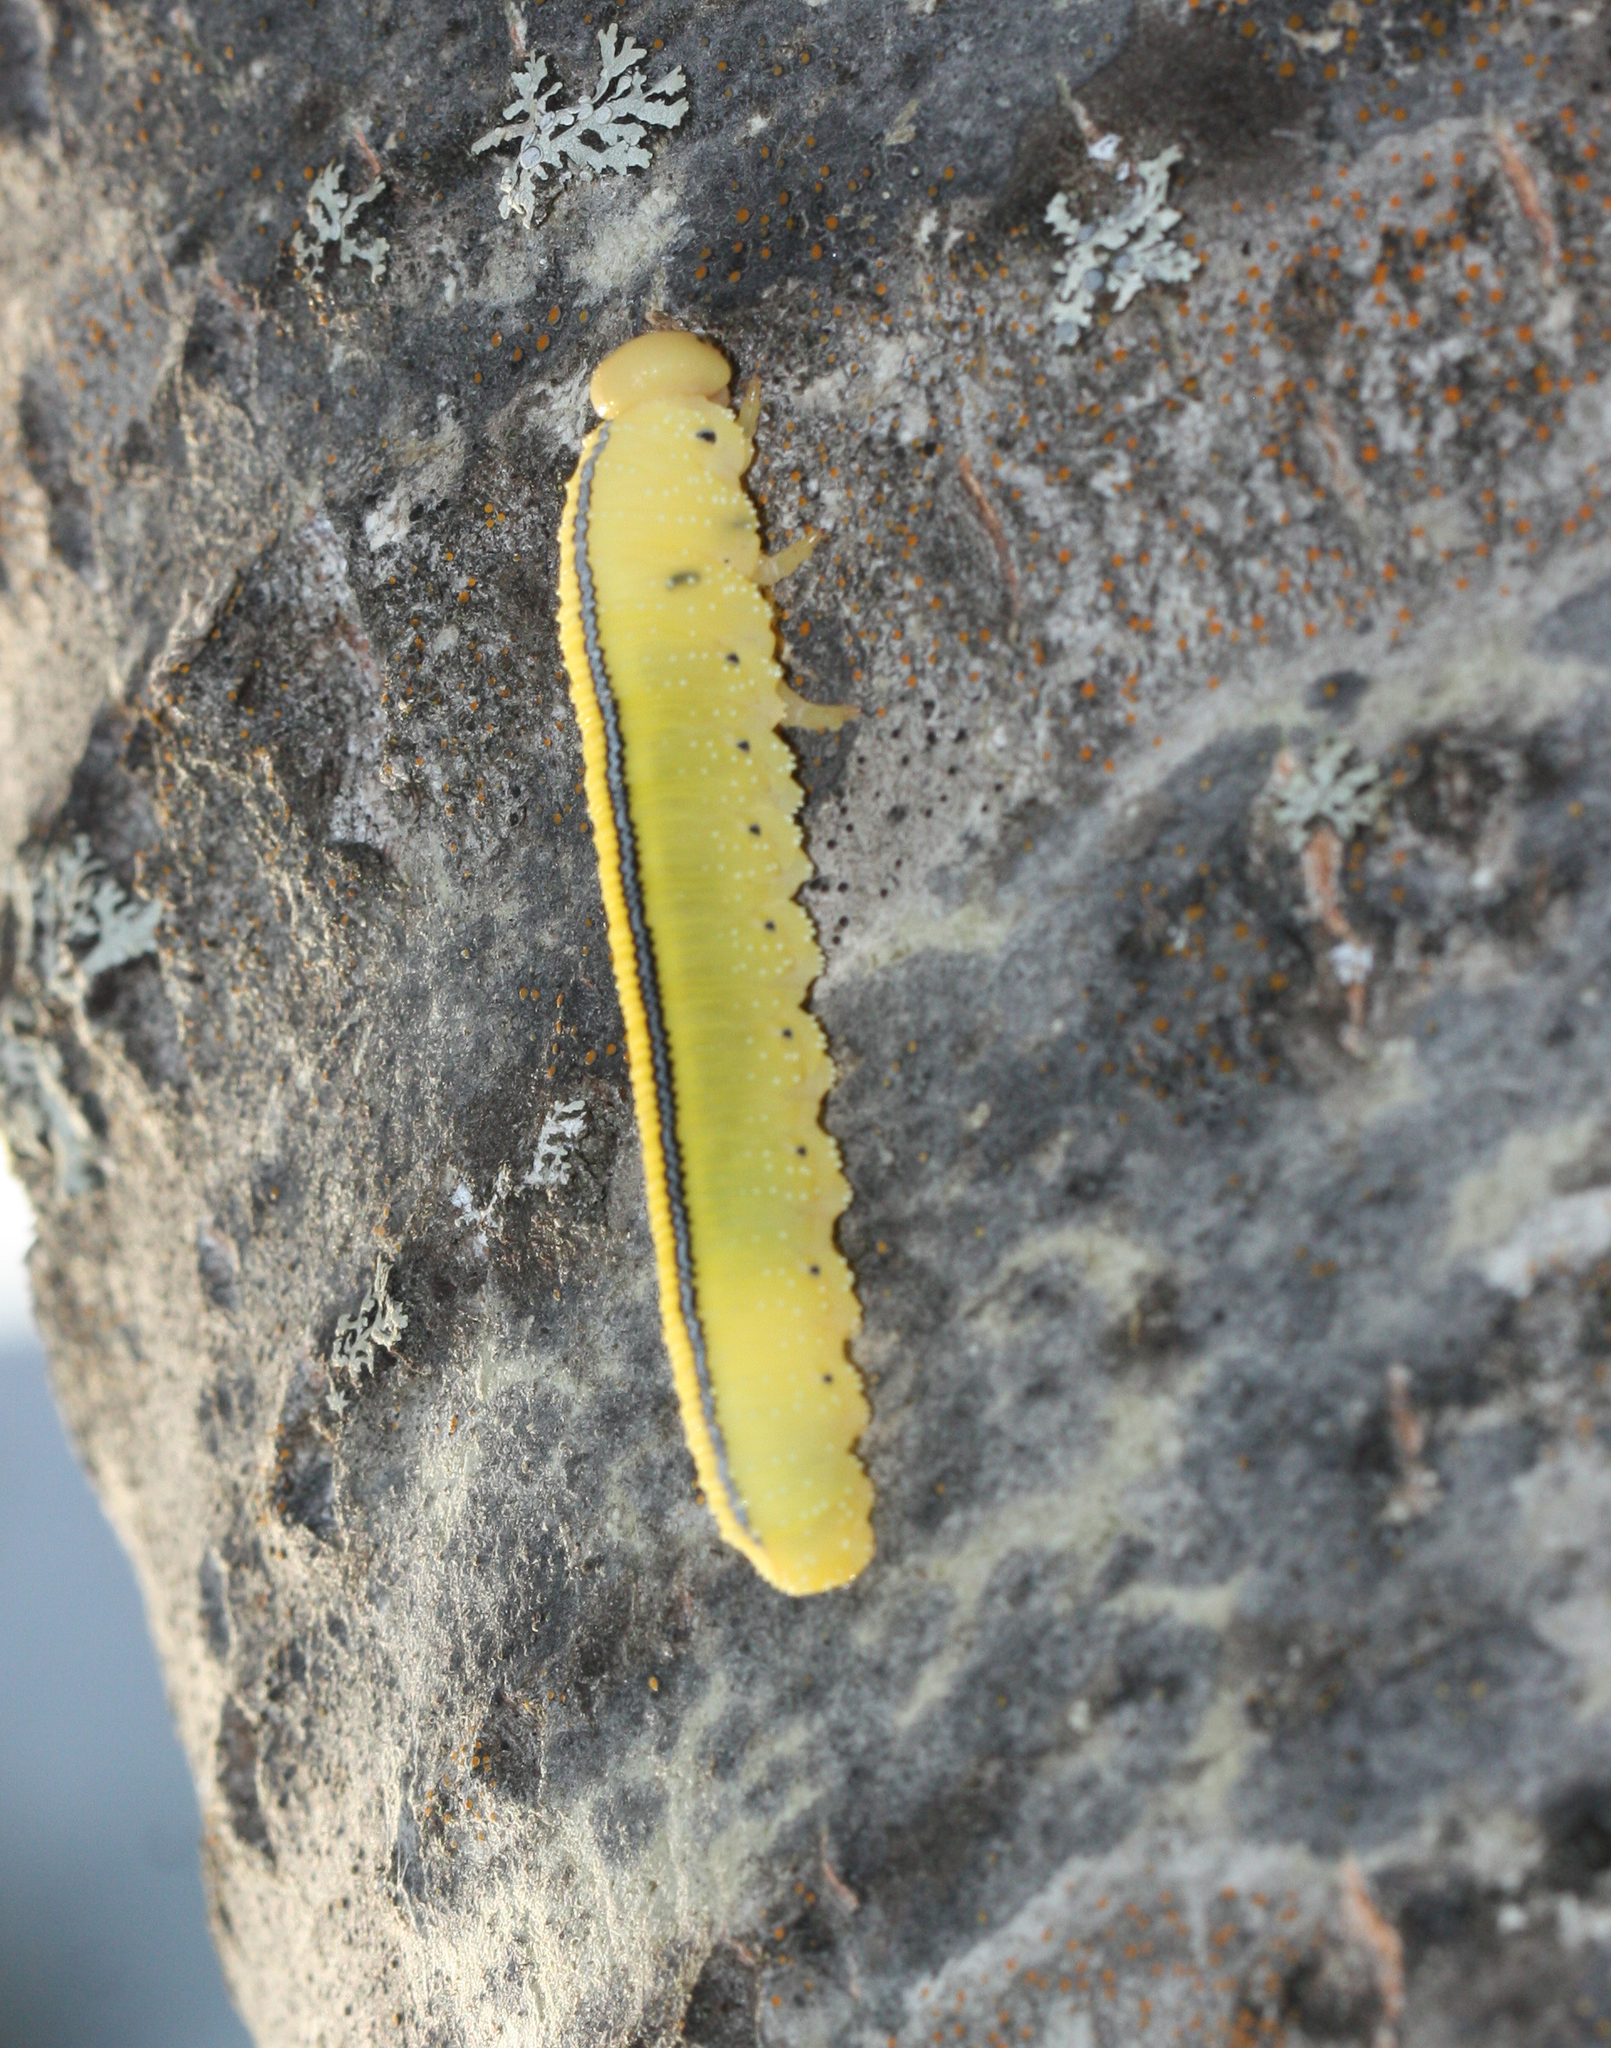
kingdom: Animalia
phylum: Arthropoda
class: Insecta
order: Hymenoptera
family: Cimbicidae
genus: Cimbex
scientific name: Cimbex americana
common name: Elm sawfly
